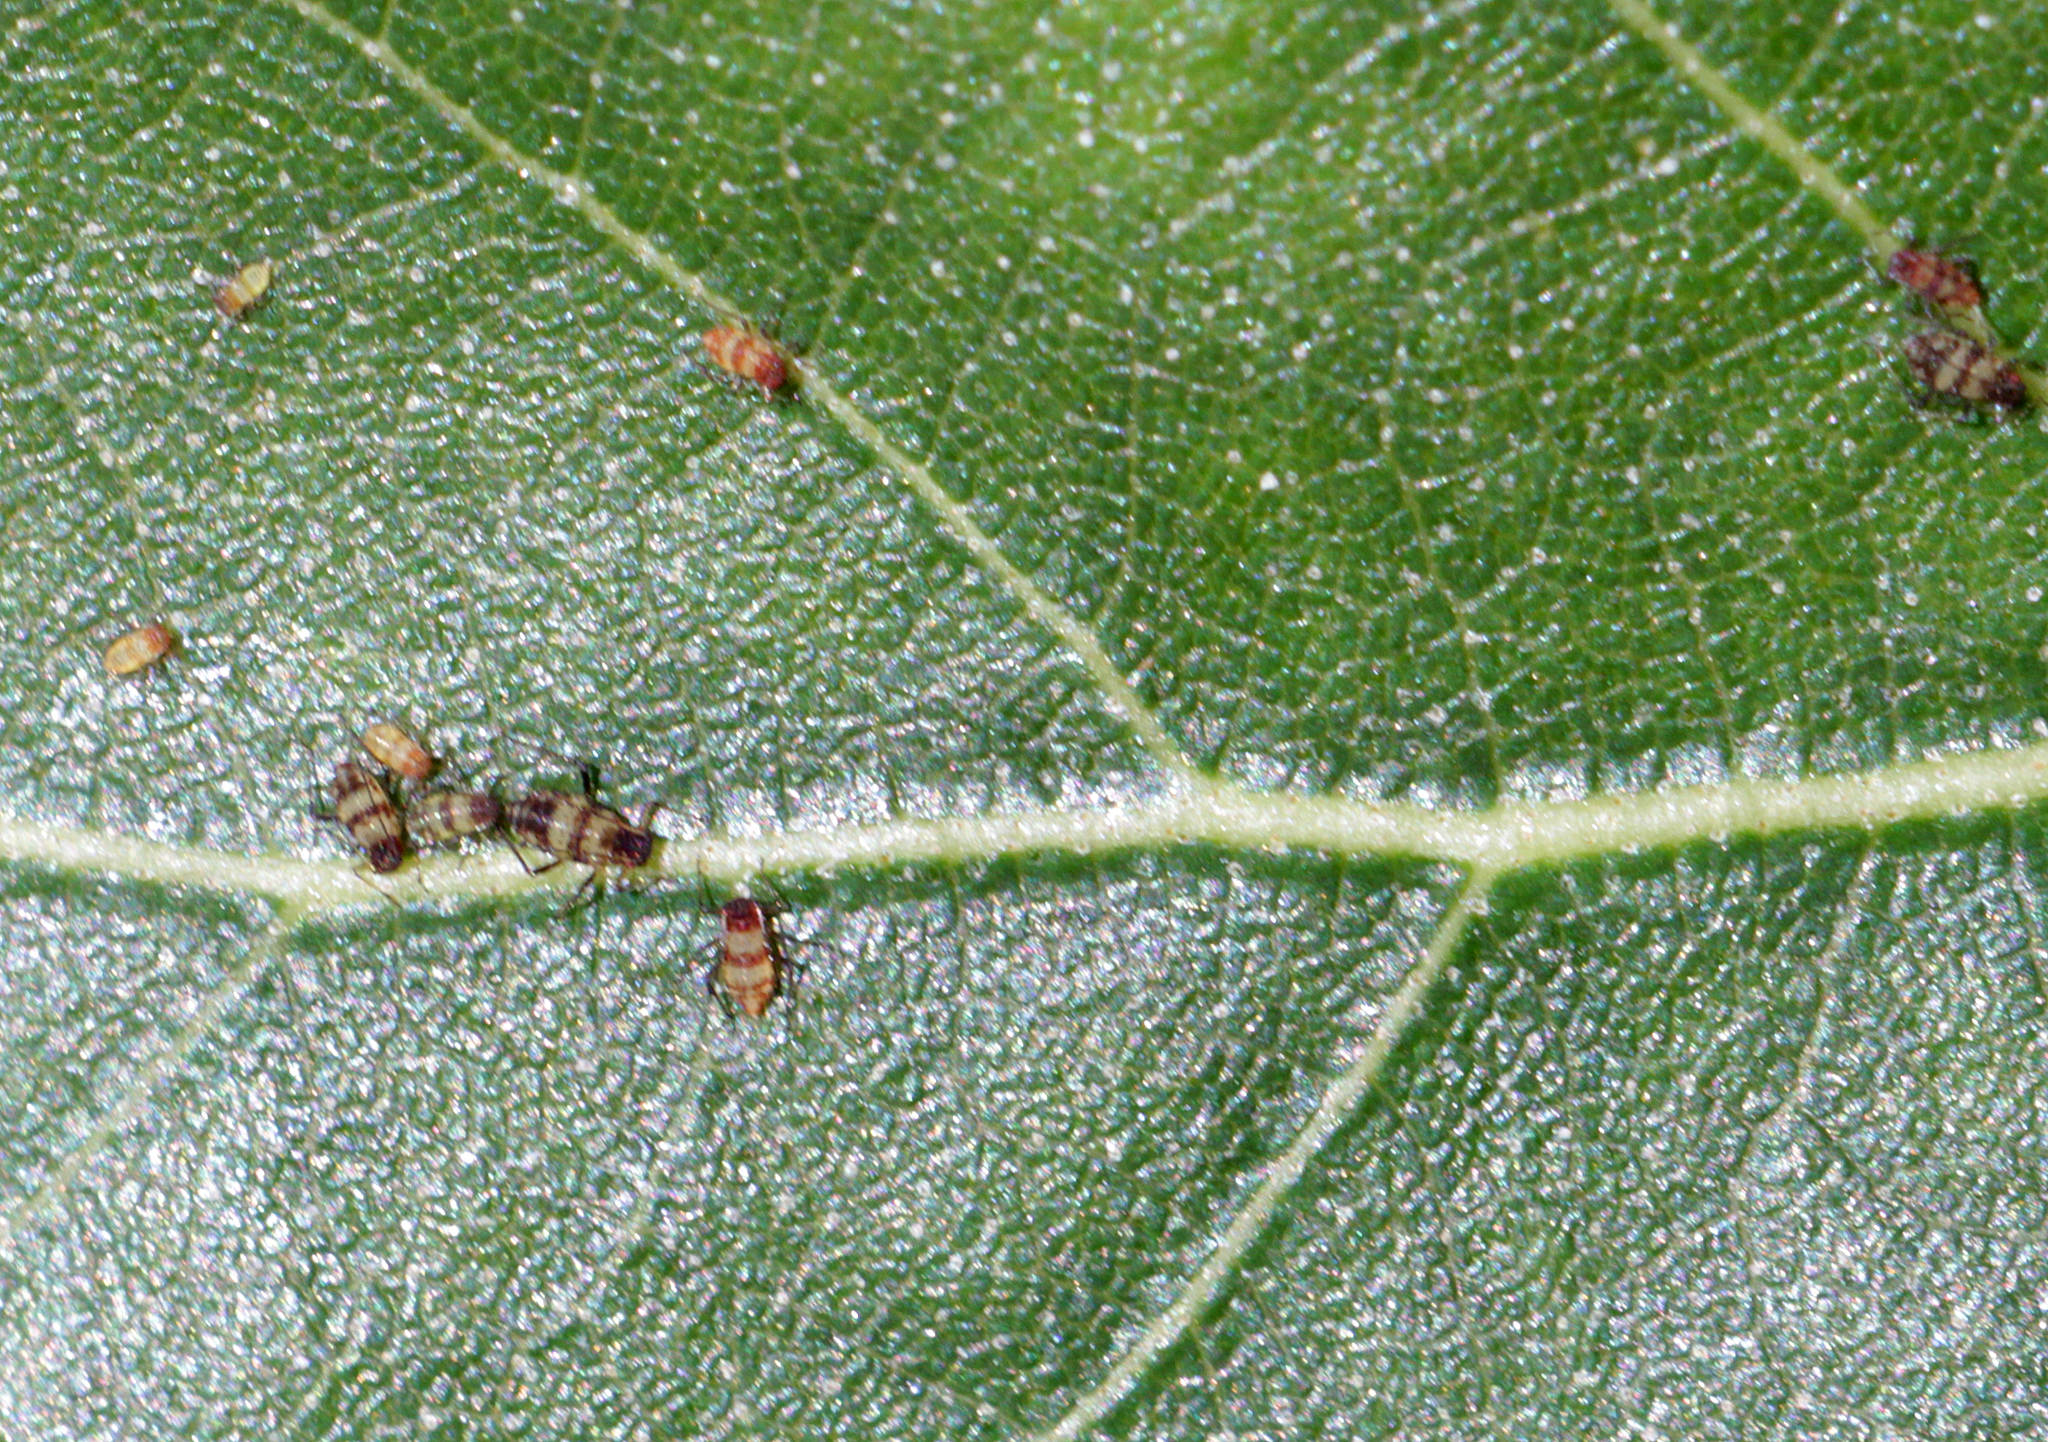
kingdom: Animalia
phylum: Arthropoda
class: Insecta
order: Hemiptera
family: Aphididae
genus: Callipterinella
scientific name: Callipterinella tuberculata
